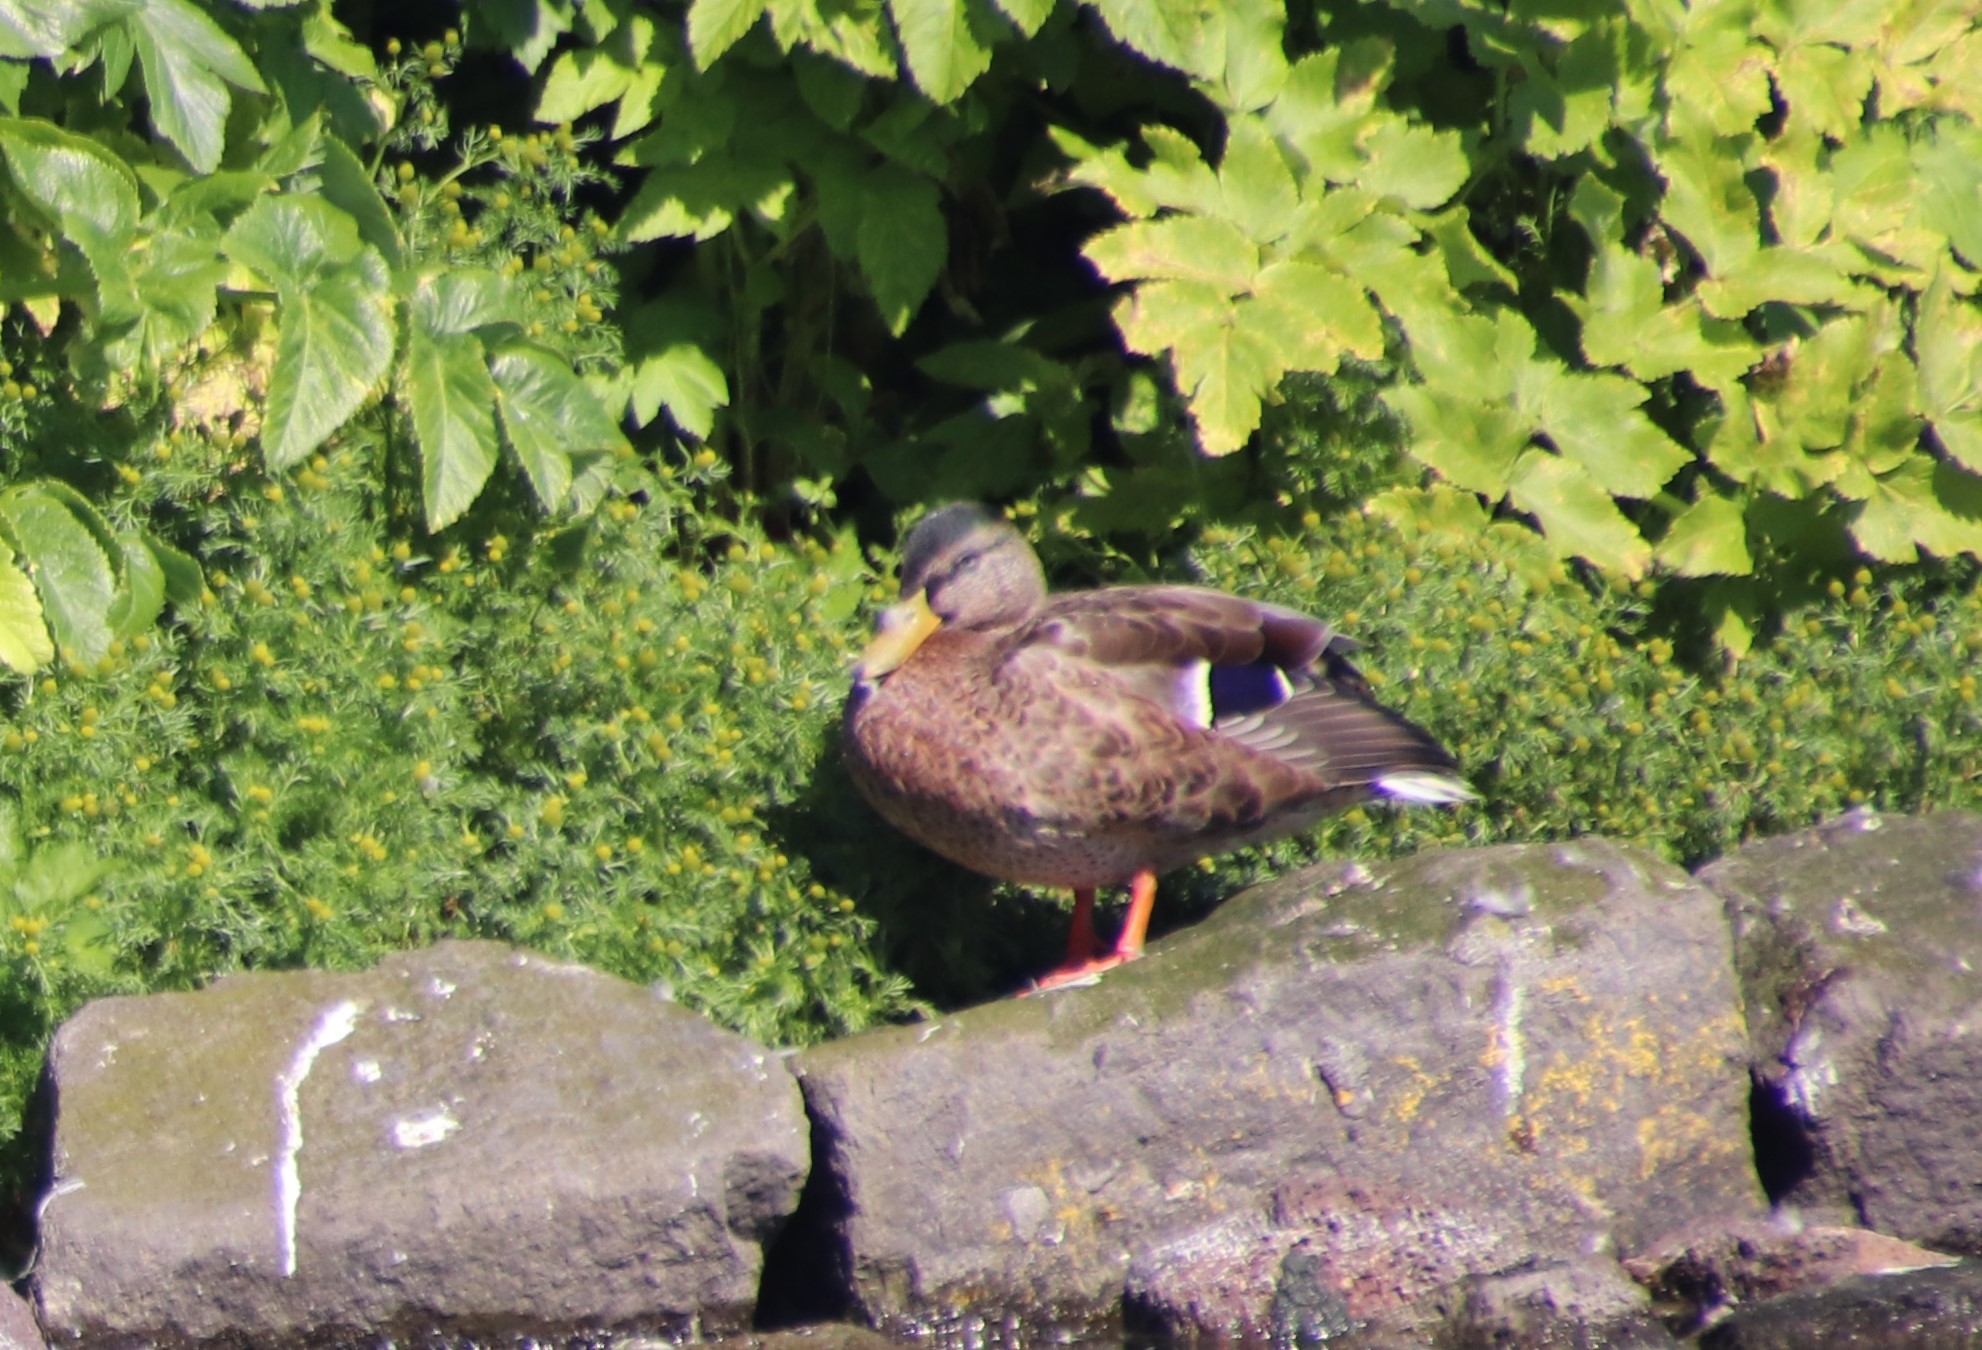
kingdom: Animalia
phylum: Chordata
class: Aves
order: Anseriformes
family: Anatidae
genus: Anas
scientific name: Anas platyrhynchos
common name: Mallard
